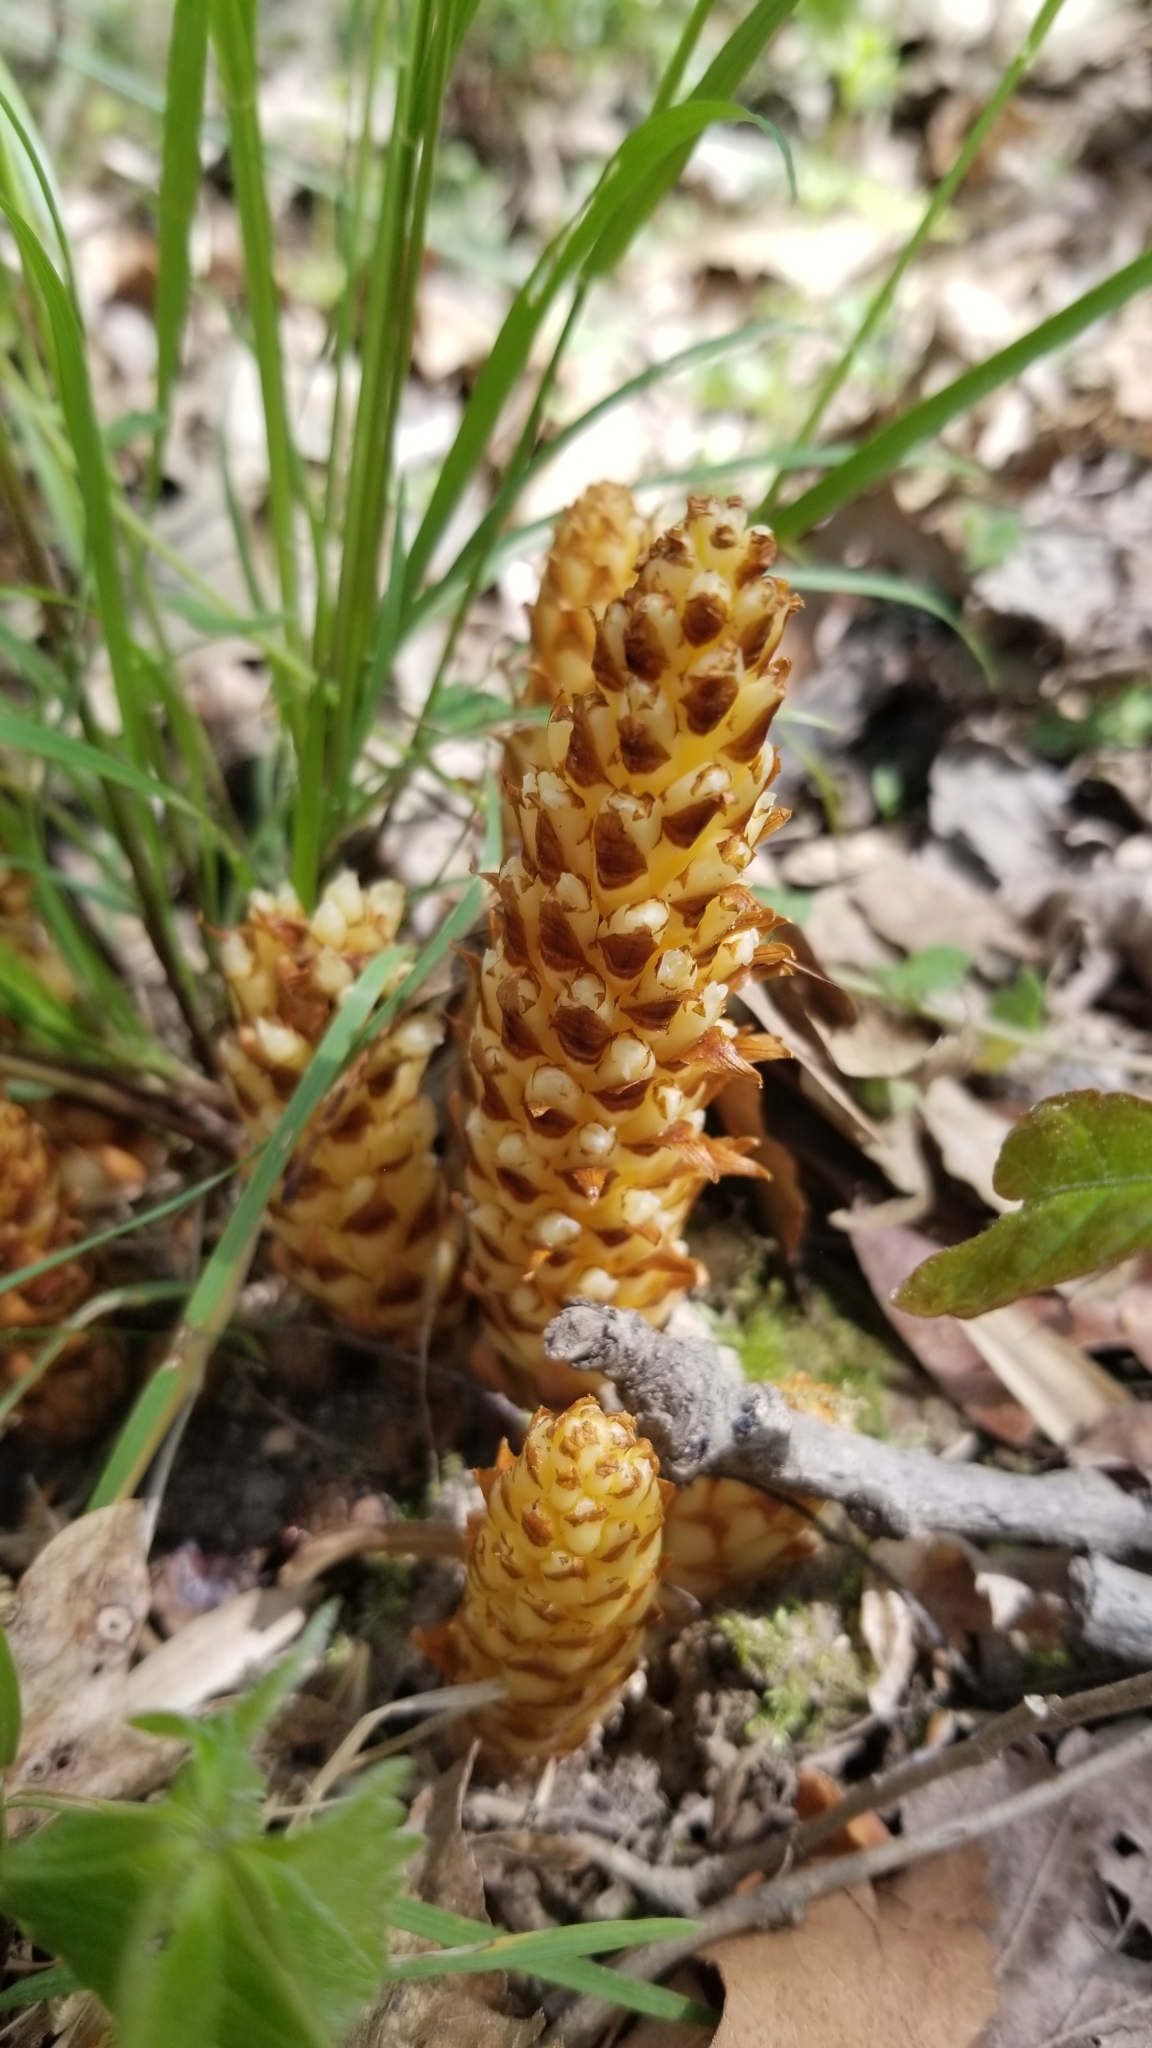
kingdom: Plantae
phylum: Tracheophyta
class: Magnoliopsida
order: Lamiales
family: Orobanchaceae
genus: Conopholis
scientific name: Conopholis americana
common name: American cancer-root
